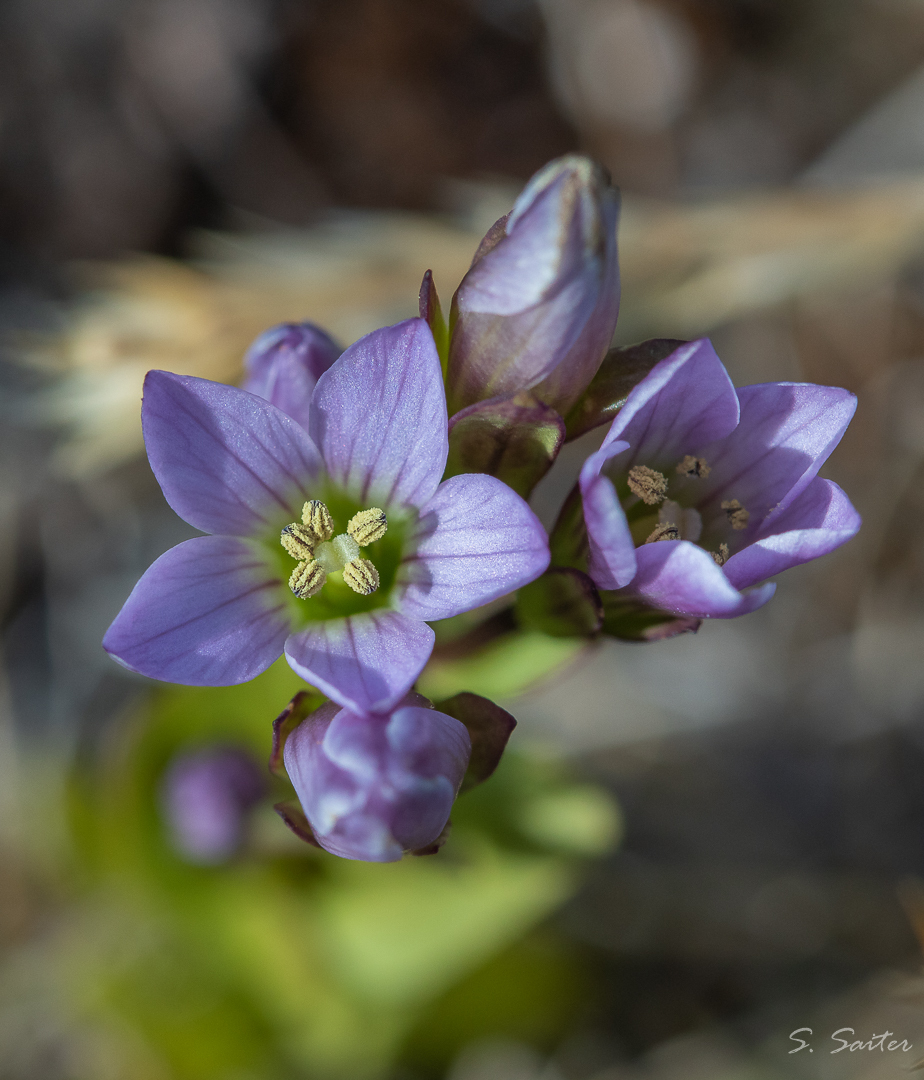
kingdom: Plantae
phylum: Tracheophyta
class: Magnoliopsida
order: Gentianales
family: Gentianaceae
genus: Gentianella
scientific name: Gentianella magellanica
